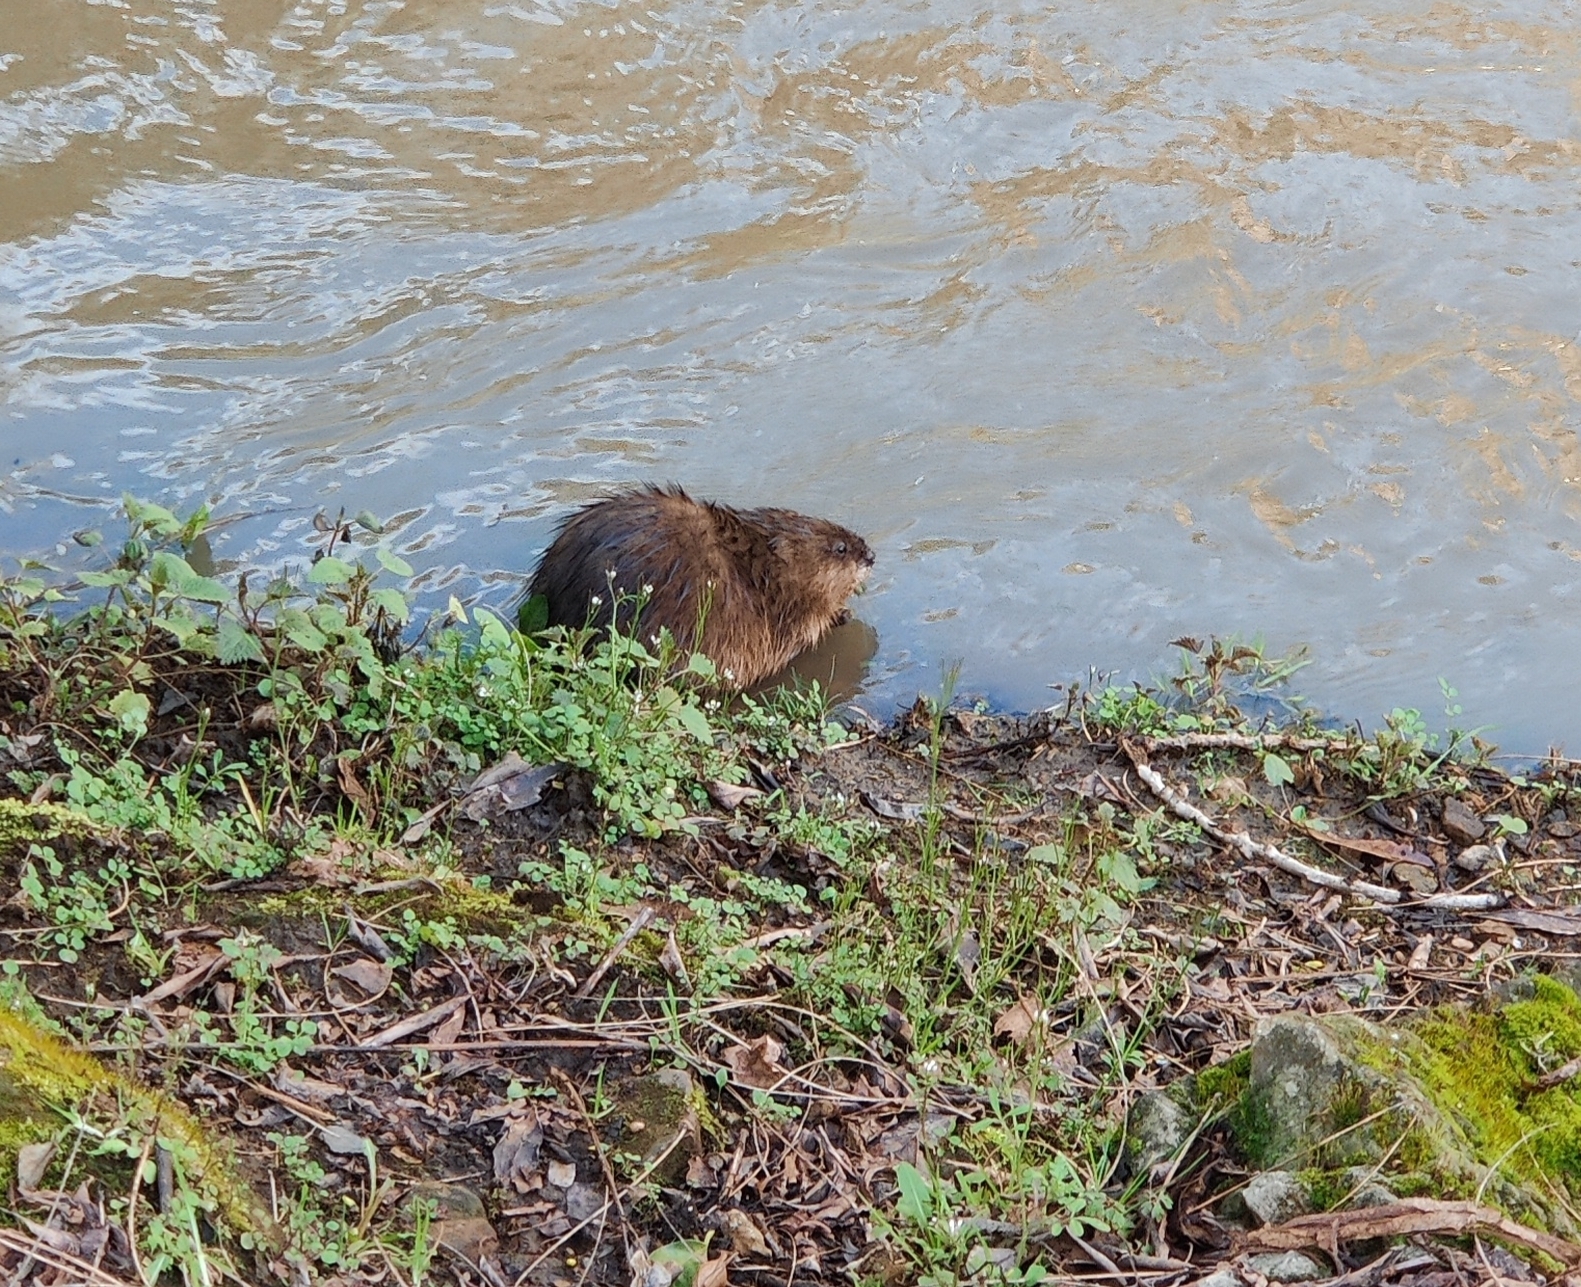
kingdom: Animalia
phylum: Chordata
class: Mammalia
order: Rodentia
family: Cricetidae
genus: Ondatra
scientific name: Ondatra zibethicus
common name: Muskrat
